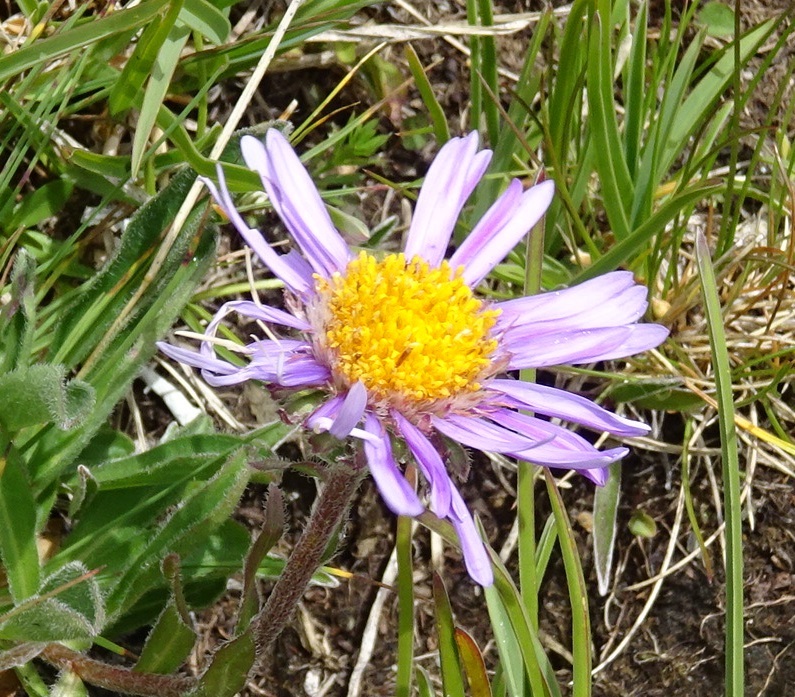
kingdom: Plantae
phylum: Tracheophyta
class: Magnoliopsida
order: Asterales
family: Asteraceae
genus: Aster
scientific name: Aster alpinus
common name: Alpine aster
